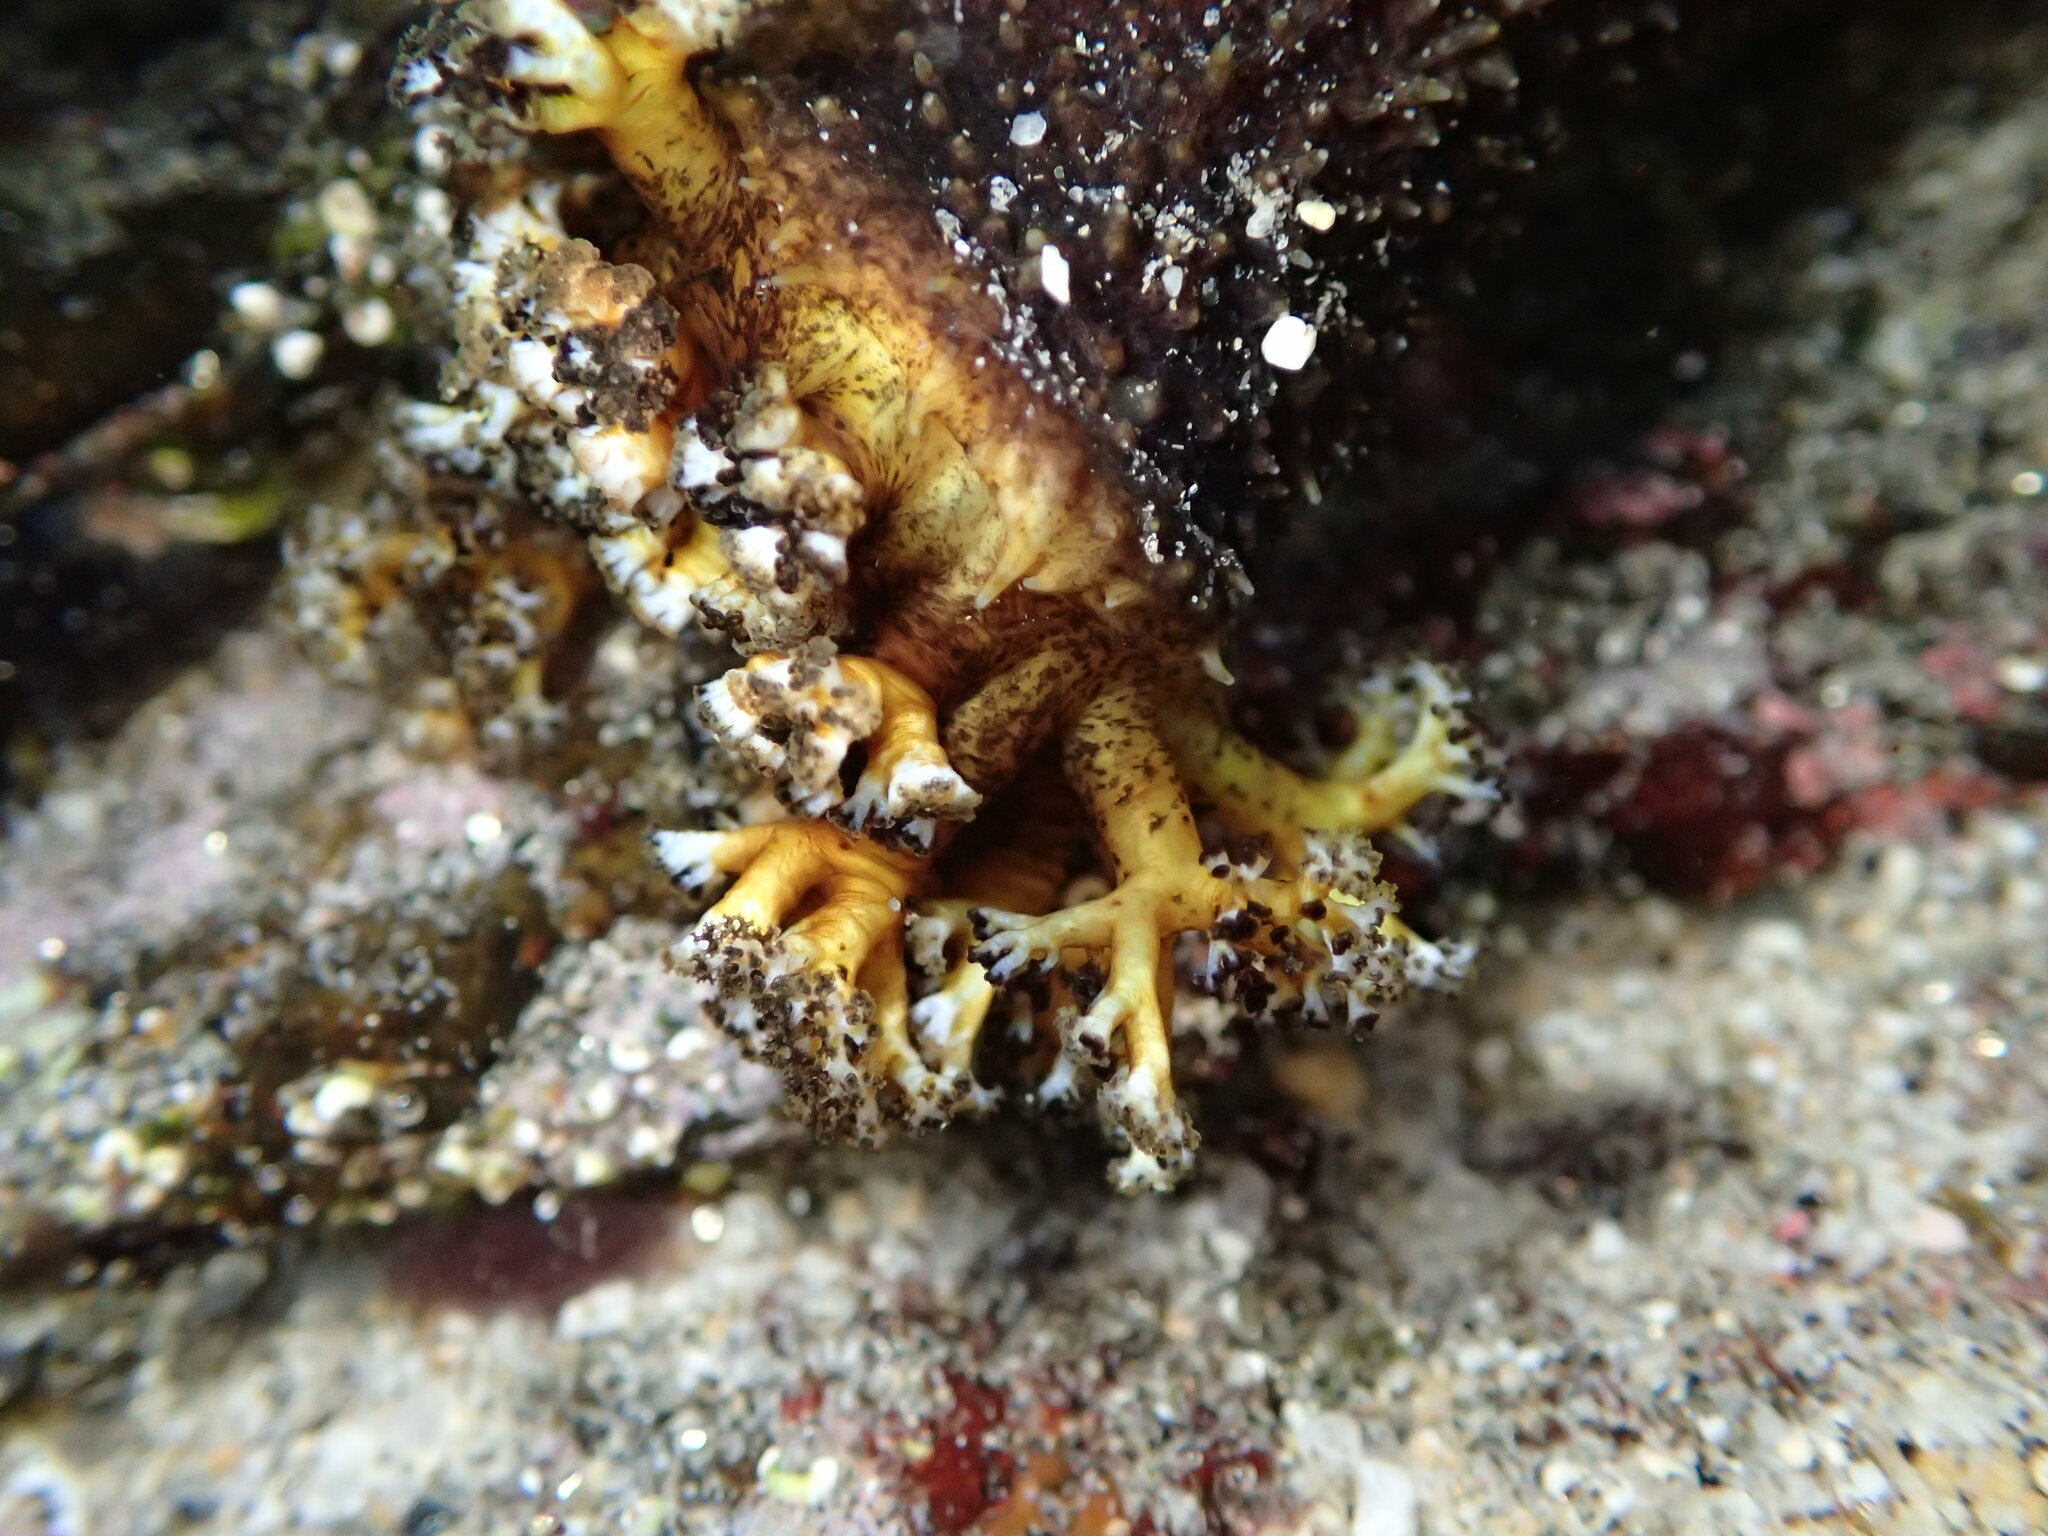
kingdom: Animalia
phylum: Echinodermata
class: Holothuroidea
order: Holothuriida
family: Holothuriidae
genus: Holothuria
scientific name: Holothuria lubrica
